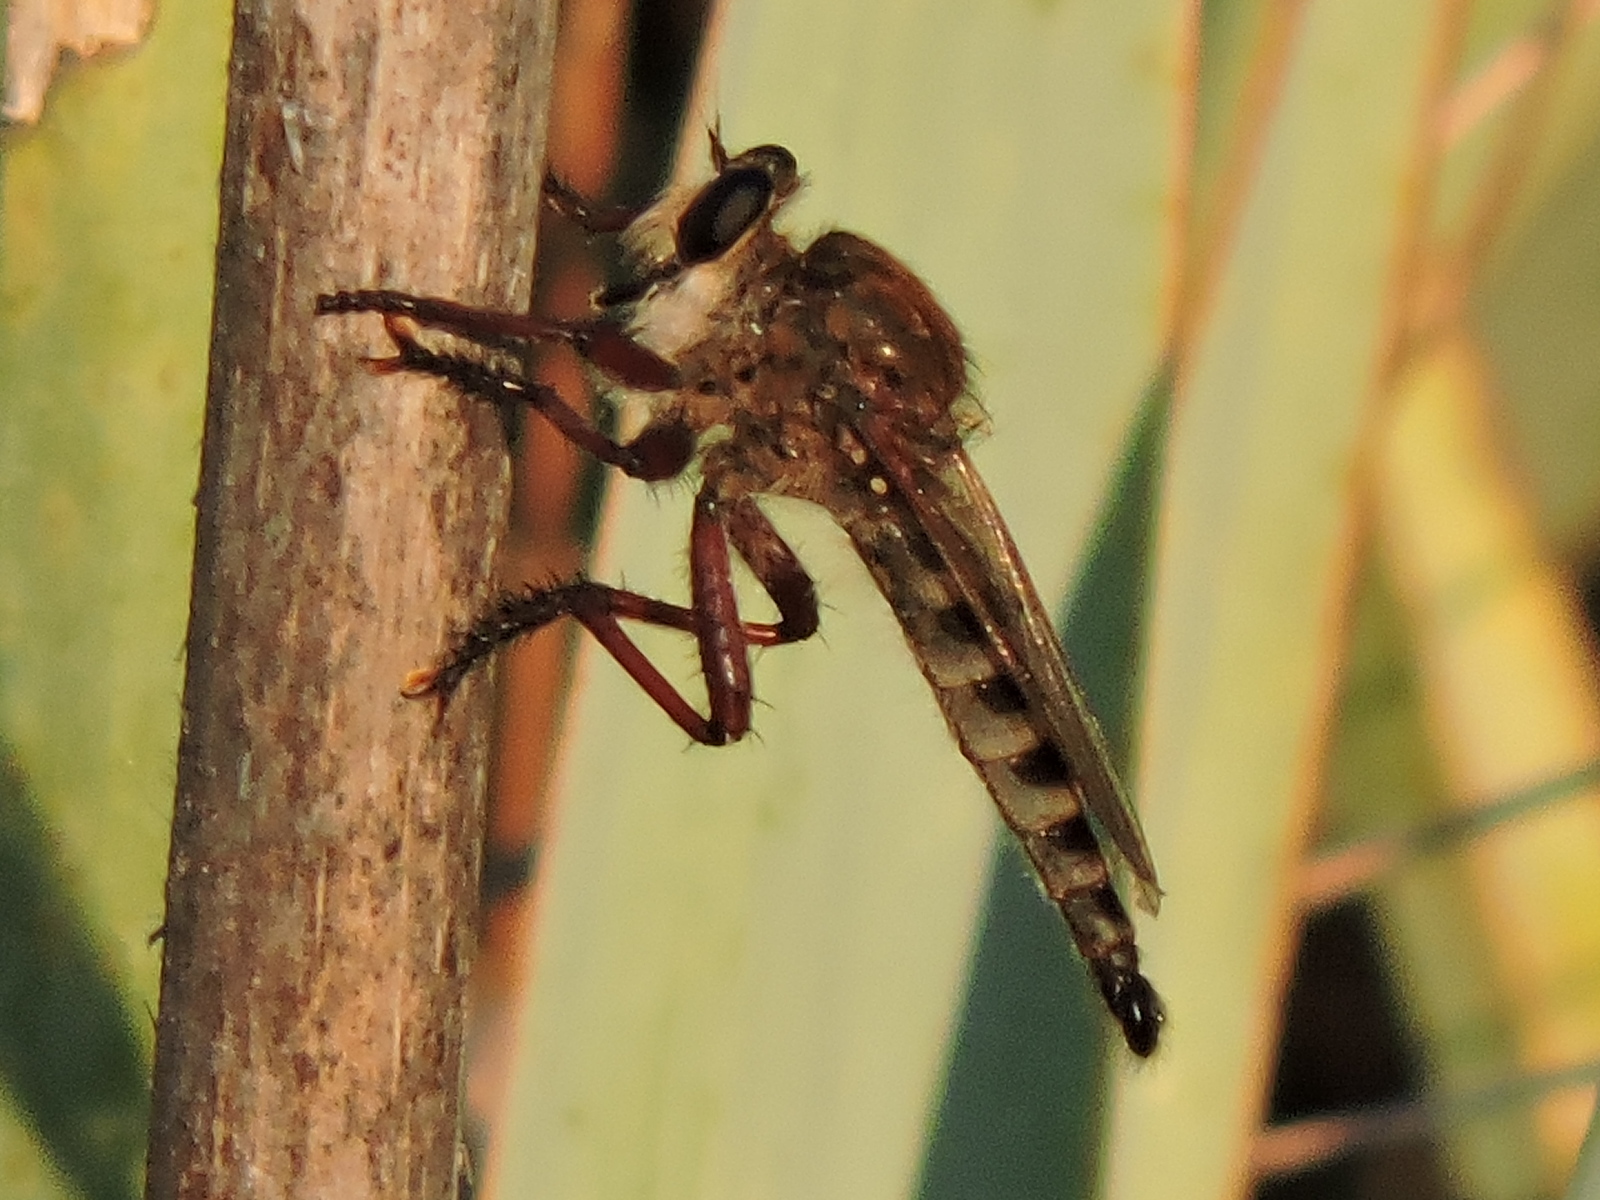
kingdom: Animalia
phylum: Arthropoda
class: Insecta
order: Diptera
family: Asilidae
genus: Promachus
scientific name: Promachus hinei
